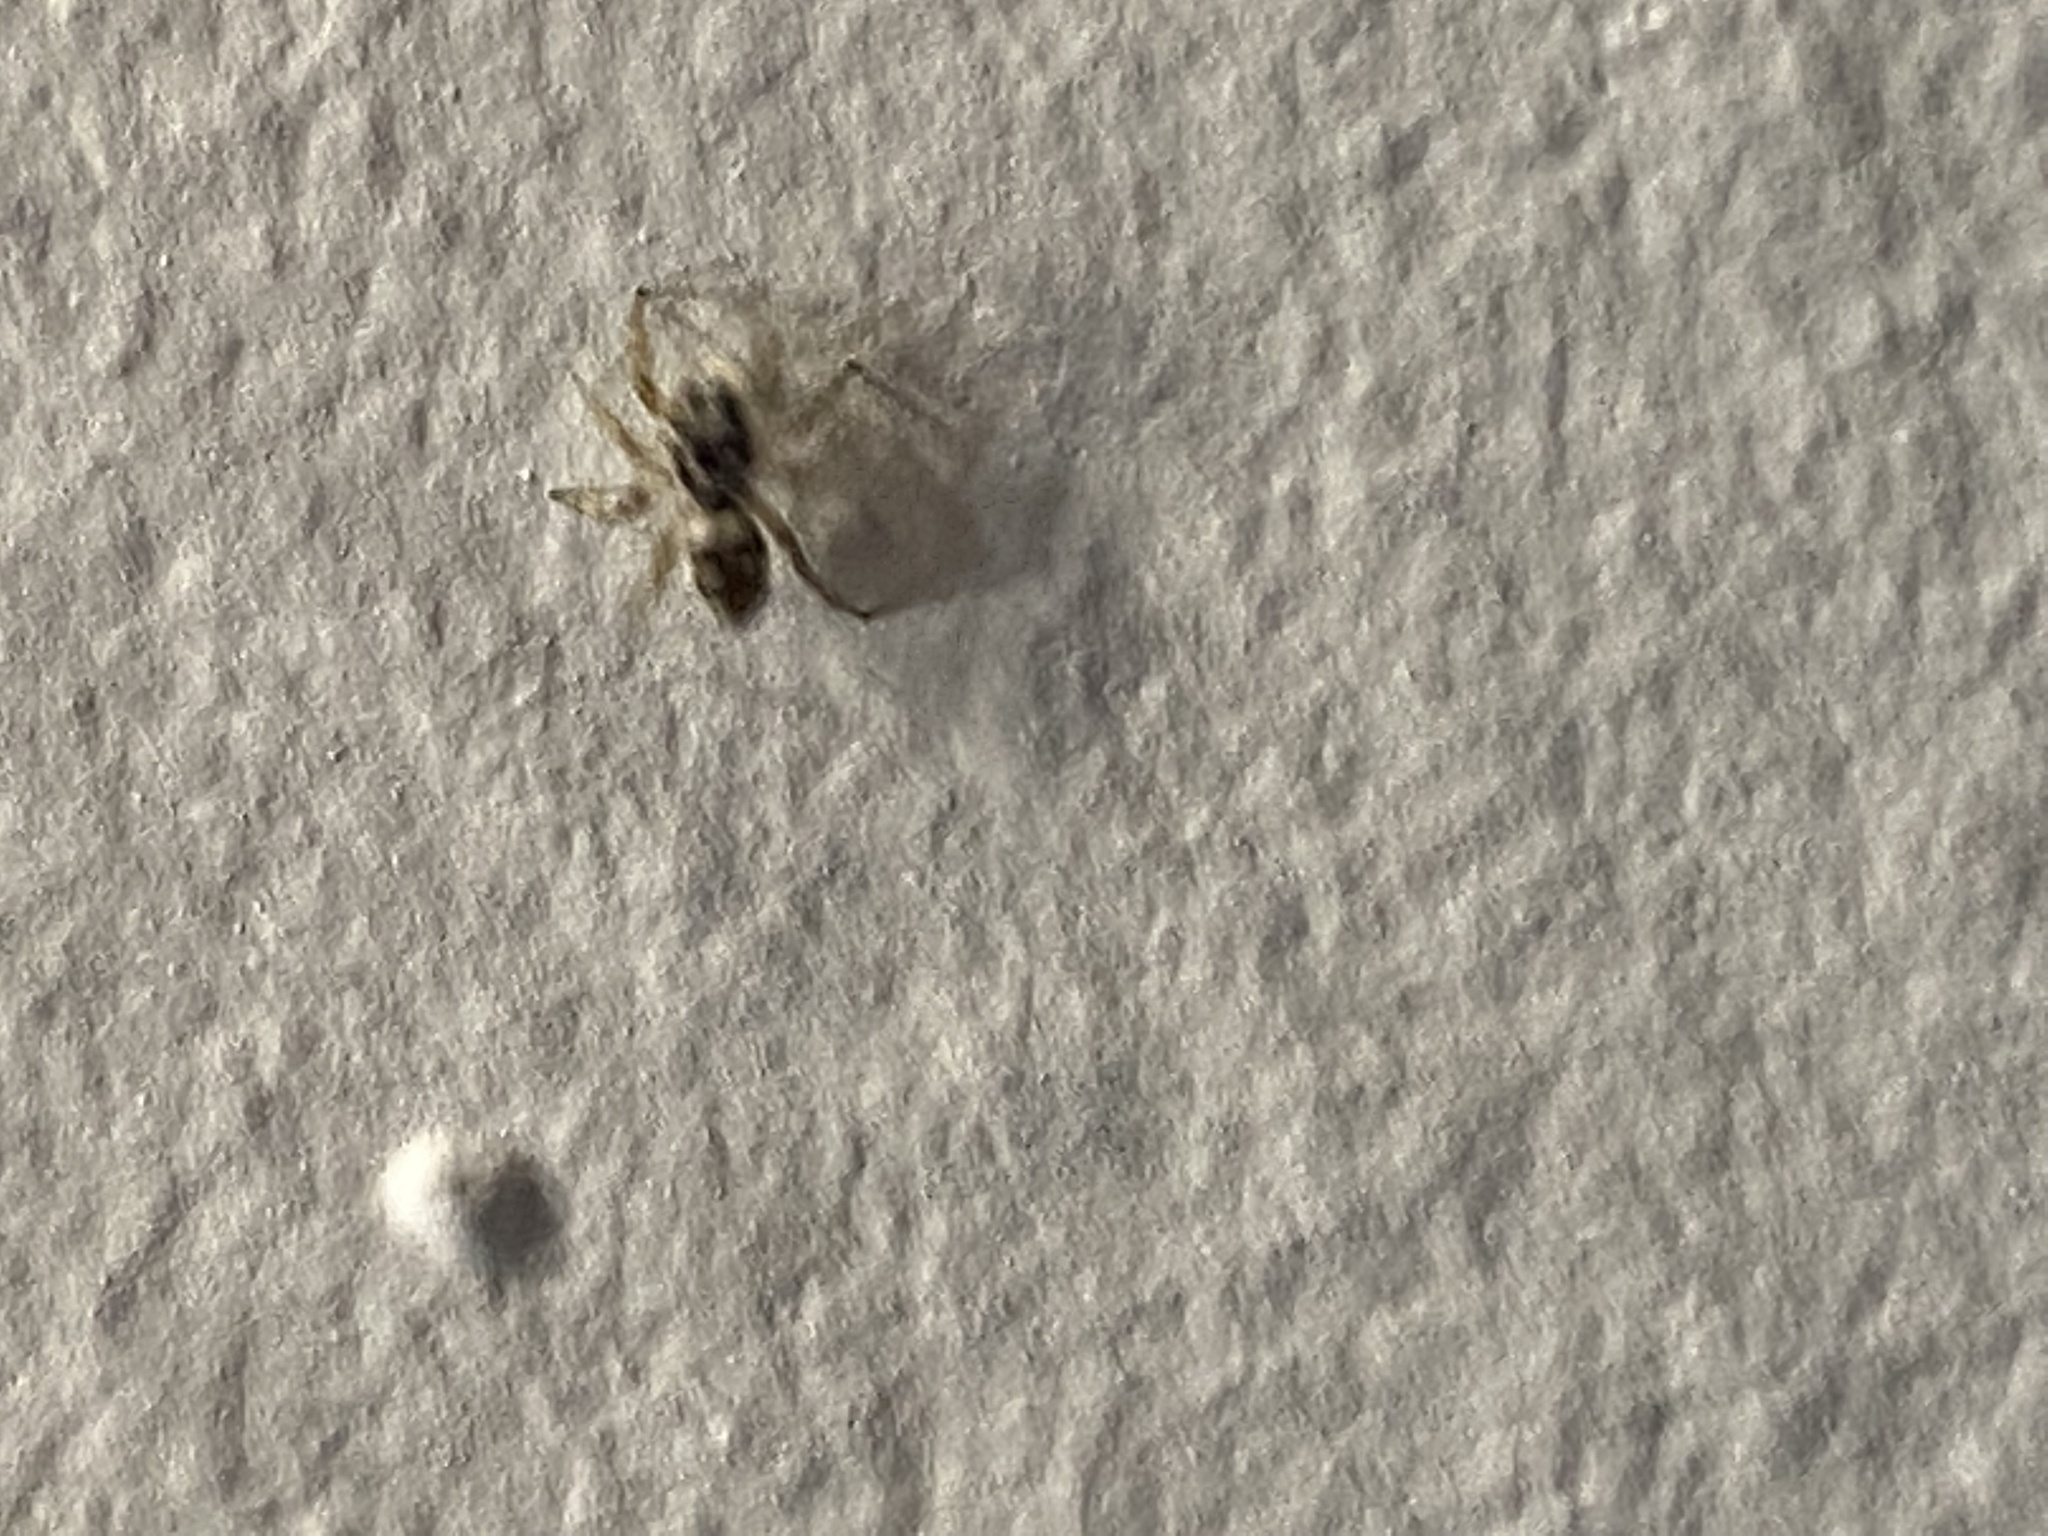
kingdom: Animalia
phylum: Arthropoda
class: Arachnida
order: Araneae
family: Salticidae
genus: Salticus
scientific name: Salticus scenicus
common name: Zebra jumper
